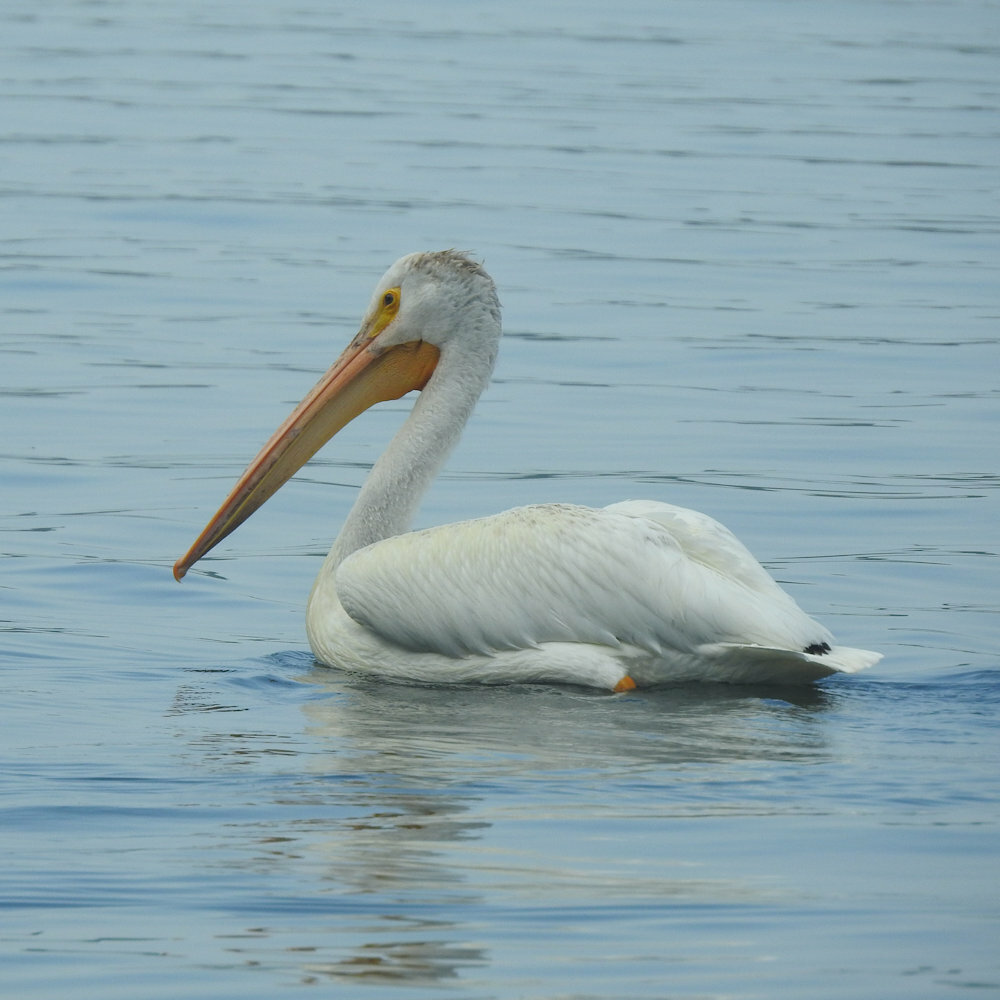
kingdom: Animalia
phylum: Chordata
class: Aves
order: Pelecaniformes
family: Pelecanidae
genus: Pelecanus
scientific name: Pelecanus erythrorhynchos
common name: American white pelican
